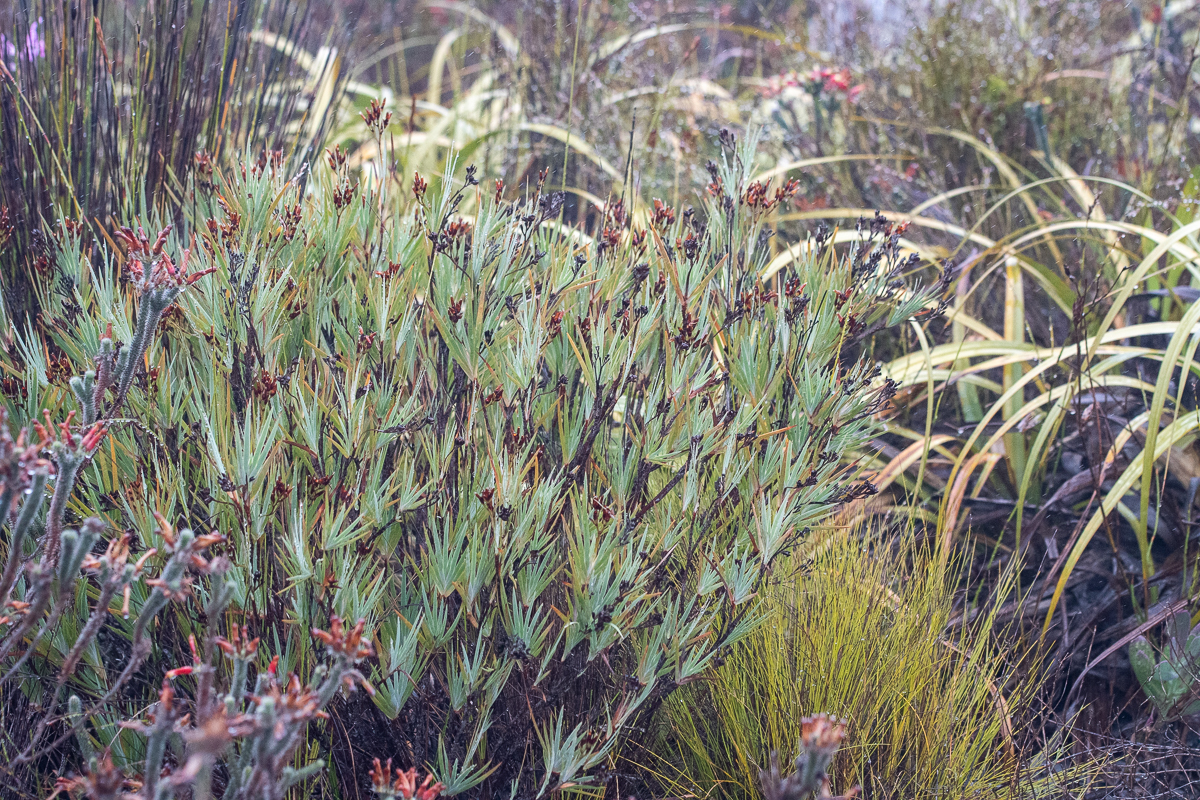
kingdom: Plantae
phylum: Tracheophyta
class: Liliopsida
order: Asparagales
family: Iridaceae
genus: Nivenia
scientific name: Nivenia stokoei
